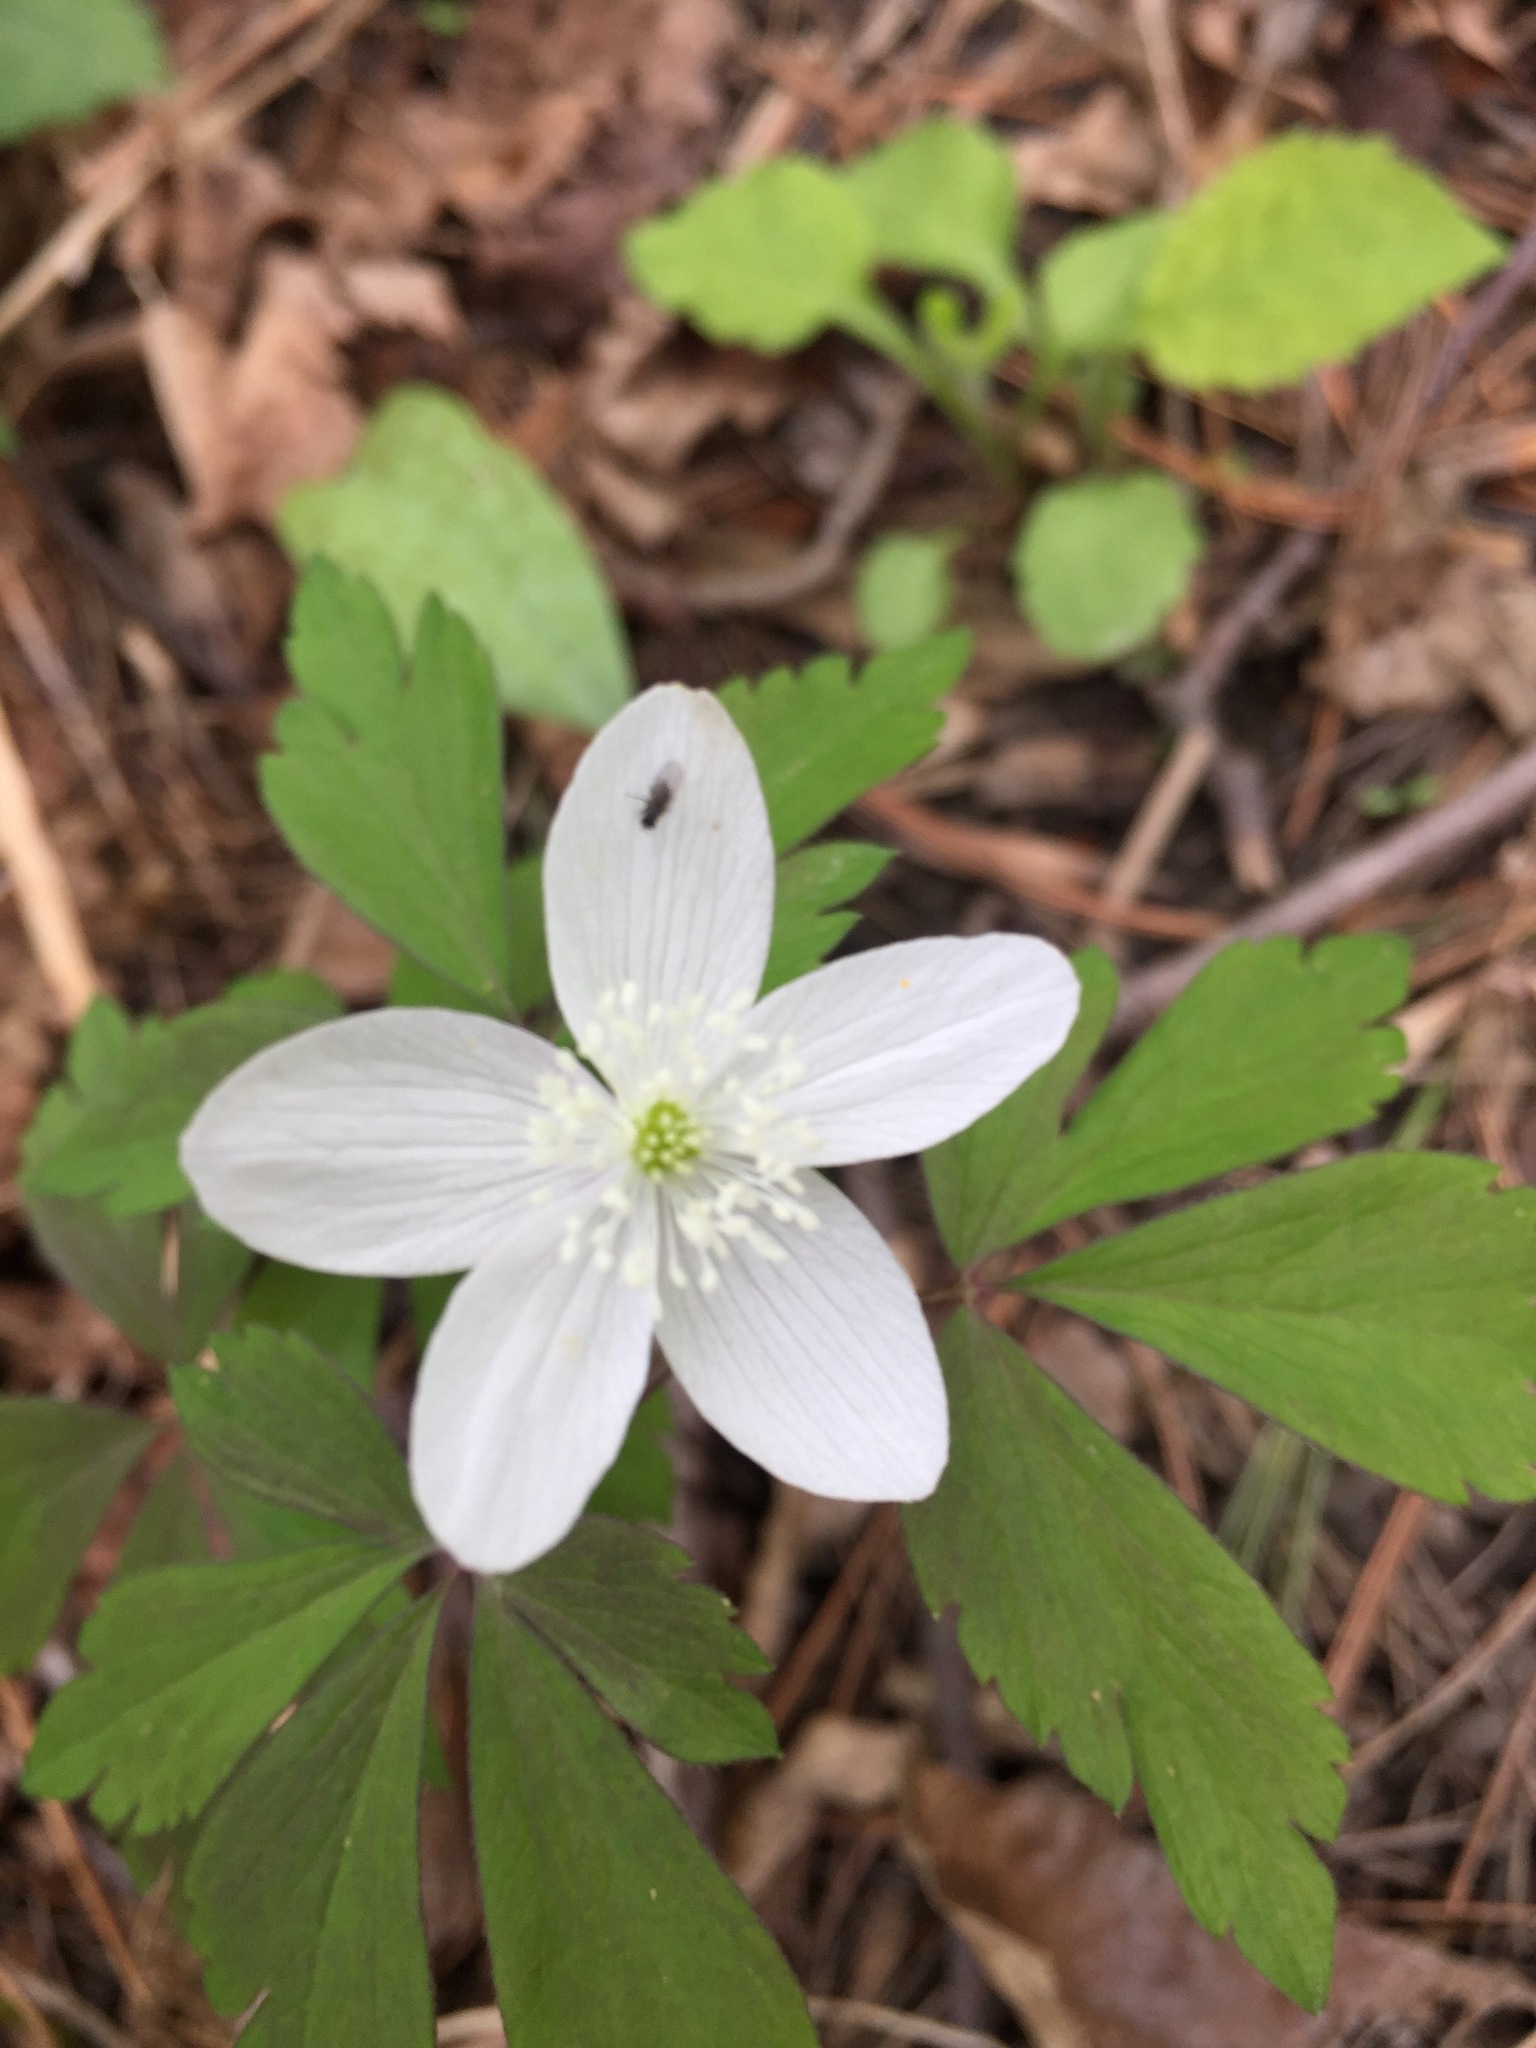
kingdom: Plantae
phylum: Tracheophyta
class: Magnoliopsida
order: Ranunculales
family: Ranunculaceae
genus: Anemone
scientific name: Anemone quinquefolia
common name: Wood anemone
